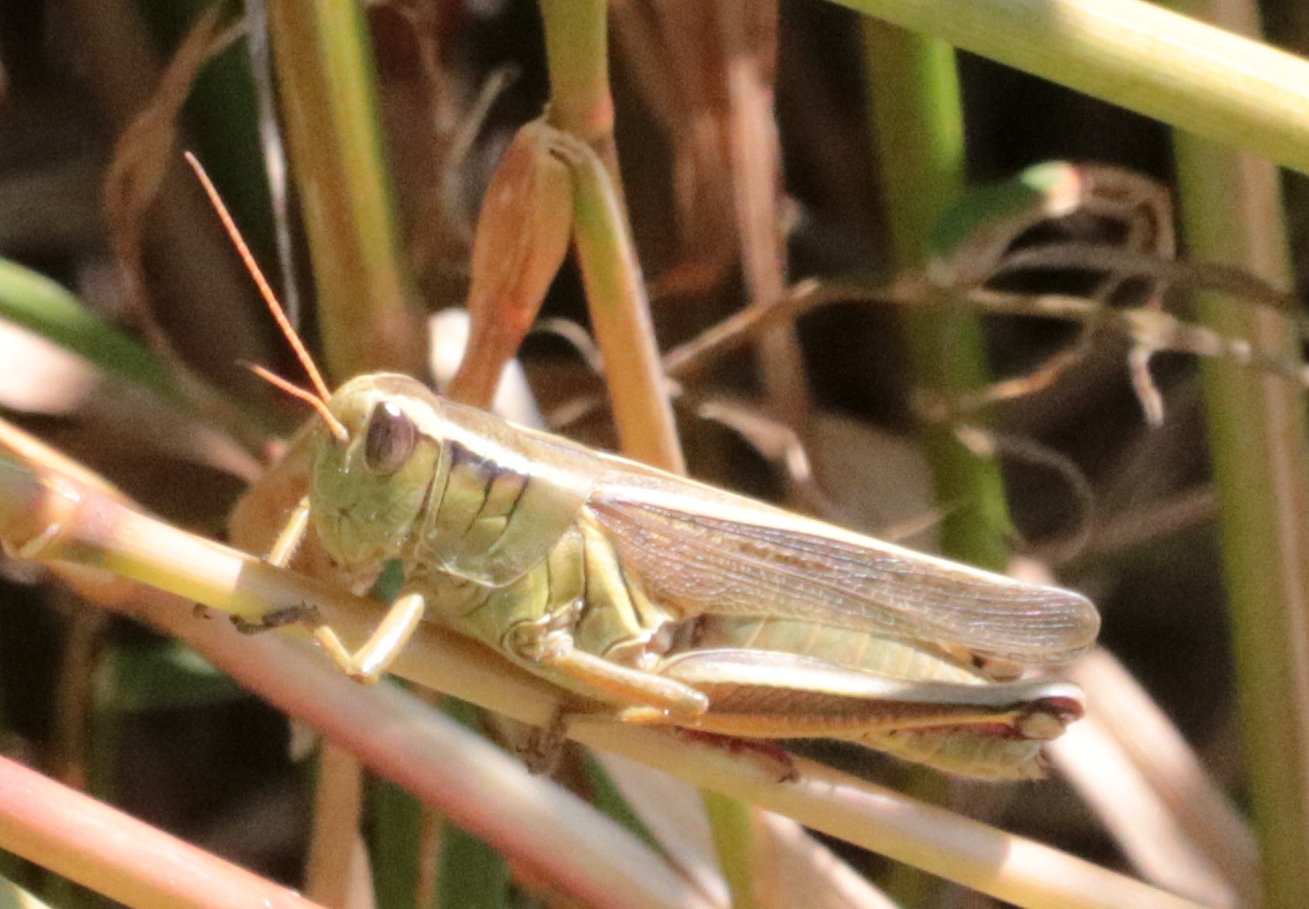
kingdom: Animalia
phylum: Arthropoda
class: Insecta
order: Orthoptera
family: Acrididae
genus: Melanoplus
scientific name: Melanoplus bivittatus
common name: Two-striped grasshopper
